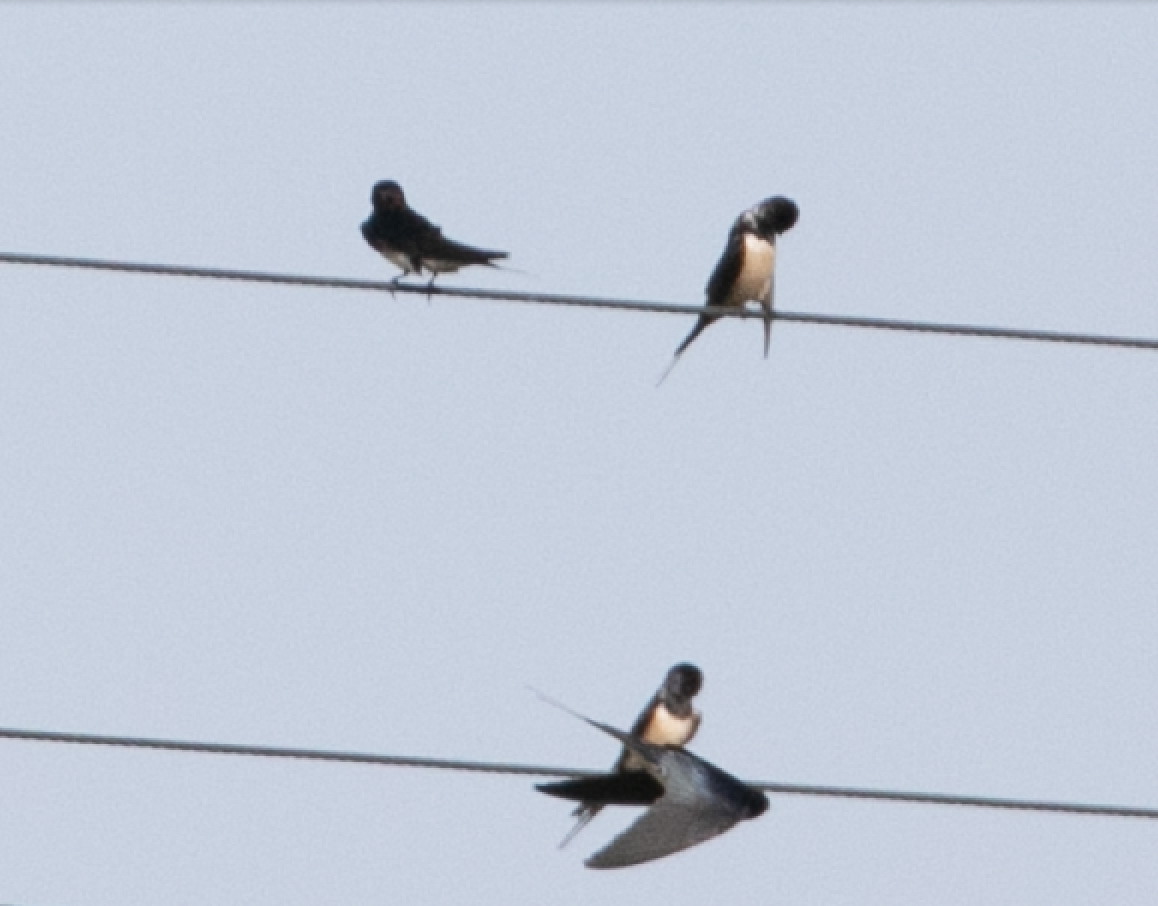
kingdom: Animalia
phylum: Chordata
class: Aves
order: Passeriformes
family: Hirundinidae
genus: Hirundo
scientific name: Hirundo rustica
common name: Barn swallow
